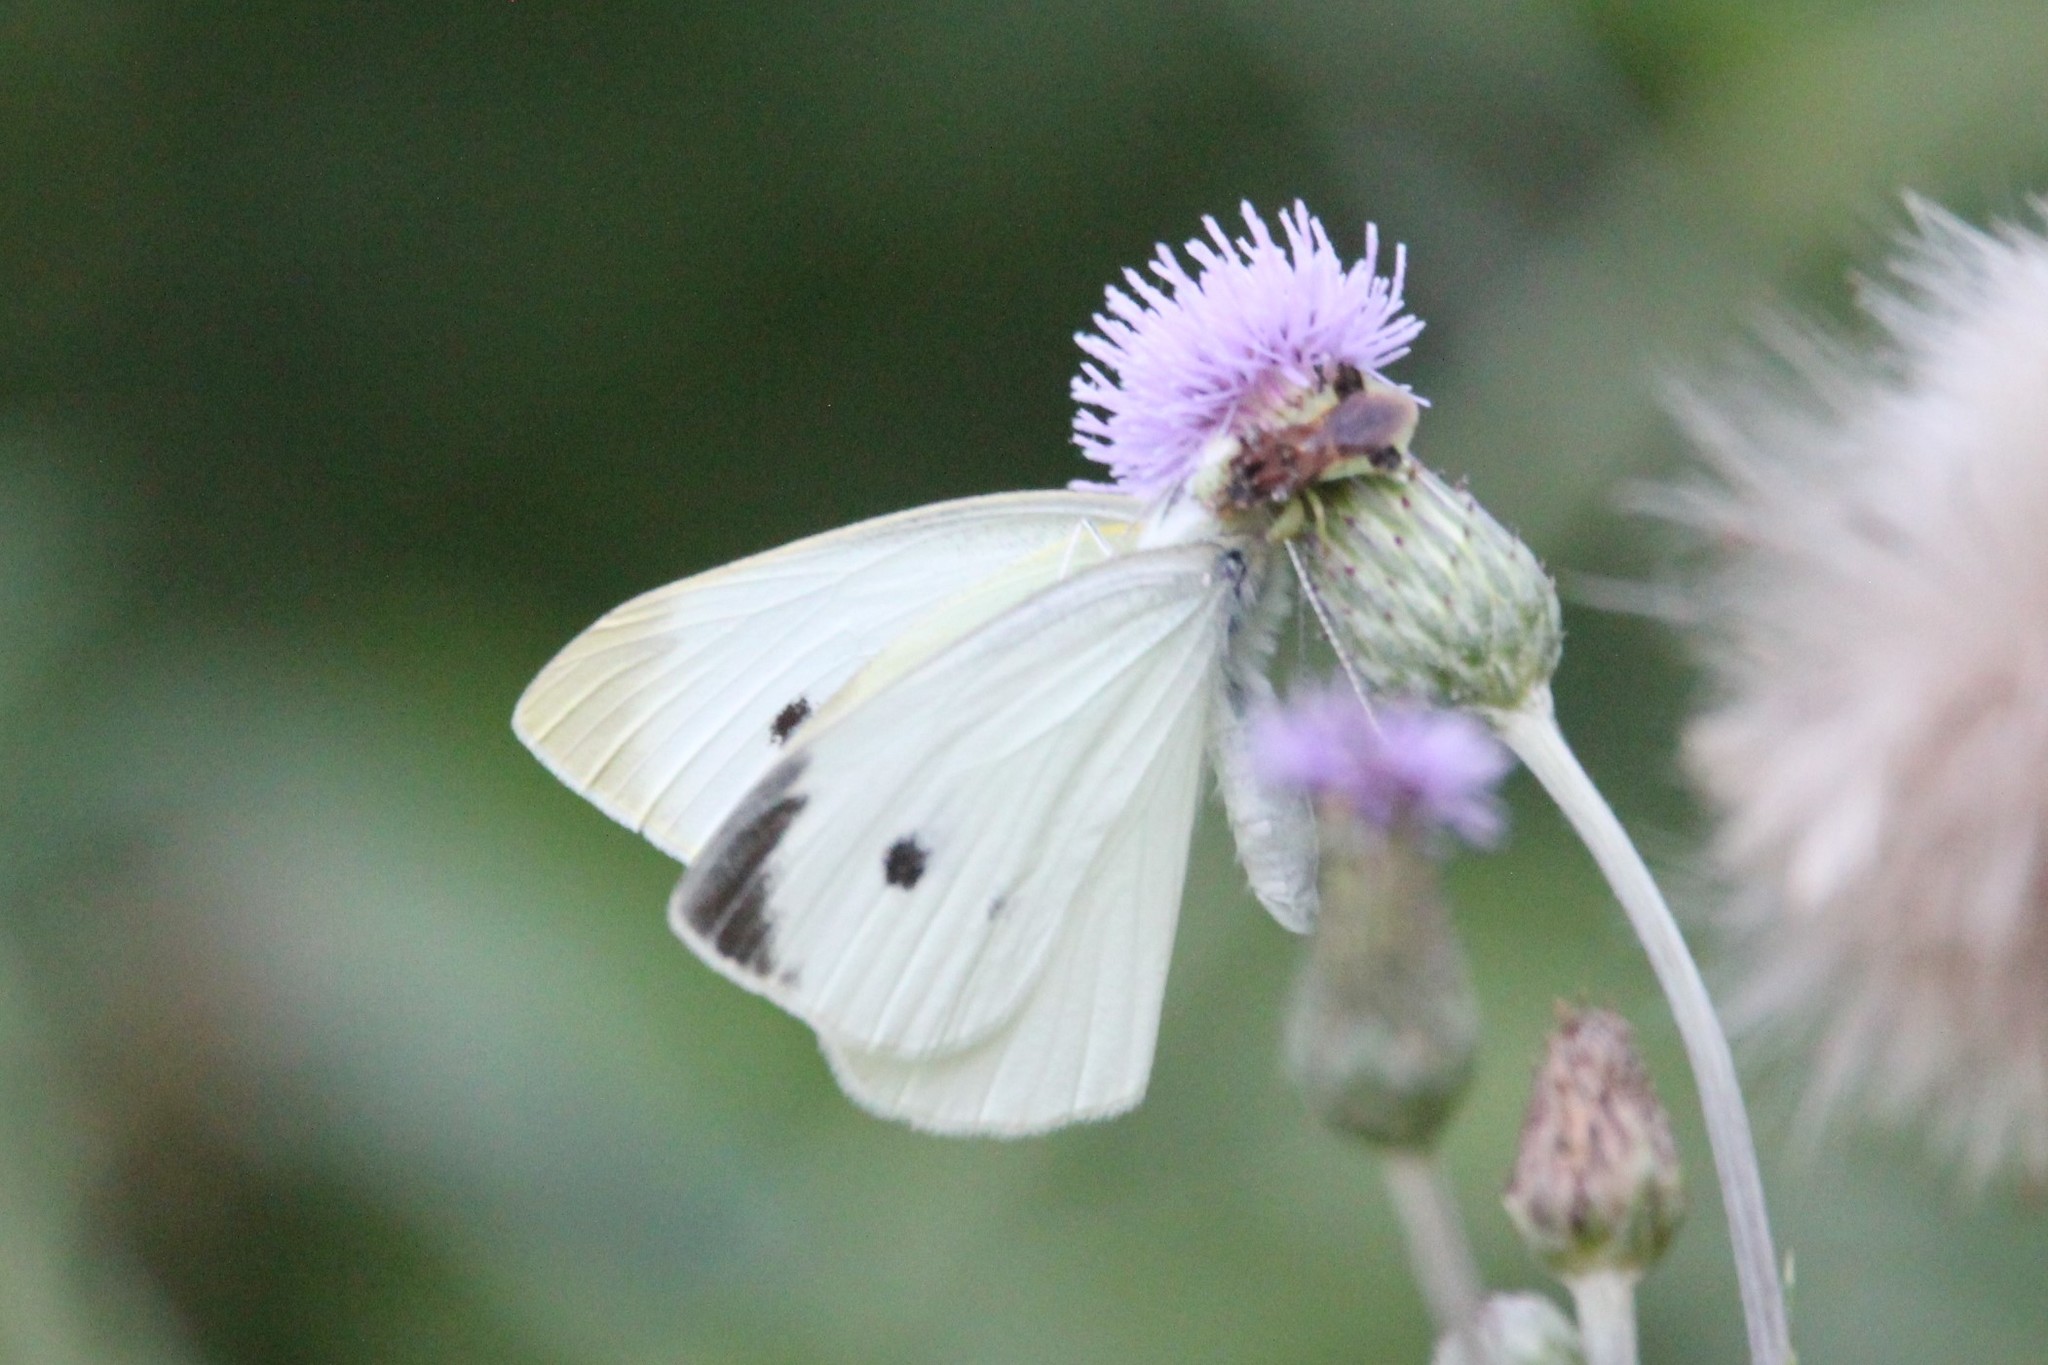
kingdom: Animalia
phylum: Arthropoda
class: Insecta
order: Lepidoptera
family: Pieridae
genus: Pieris
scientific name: Pieris rapae
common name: Small white
